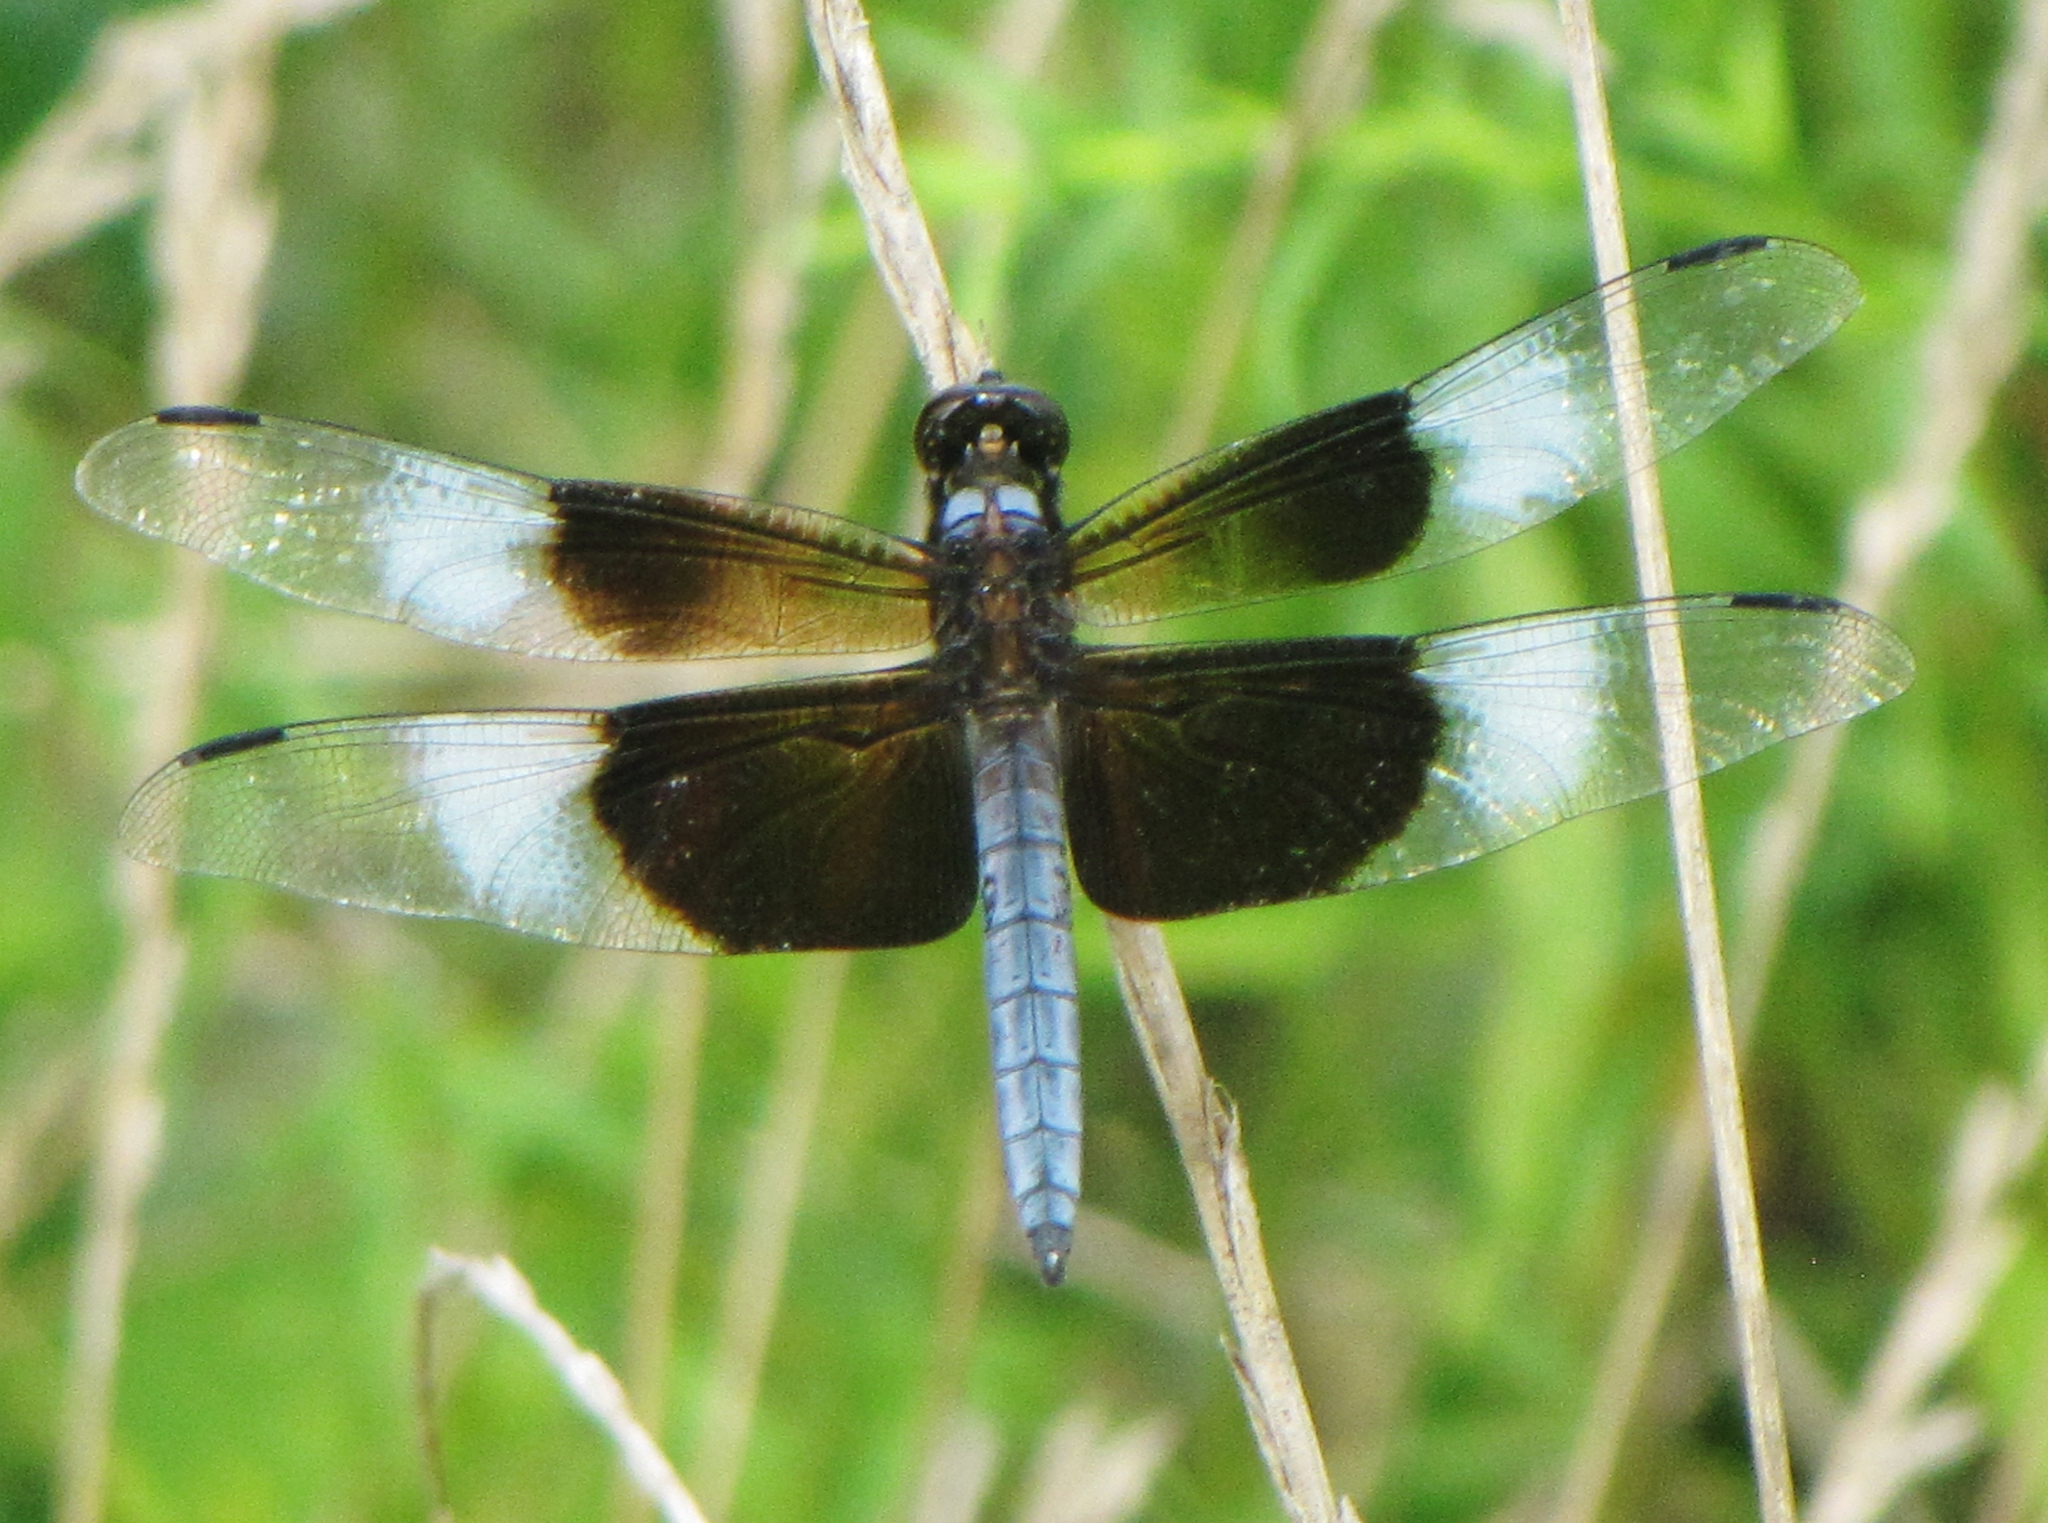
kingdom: Animalia
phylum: Arthropoda
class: Insecta
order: Odonata
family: Libellulidae
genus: Libellula
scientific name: Libellula luctuosa
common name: Widow skimmer
